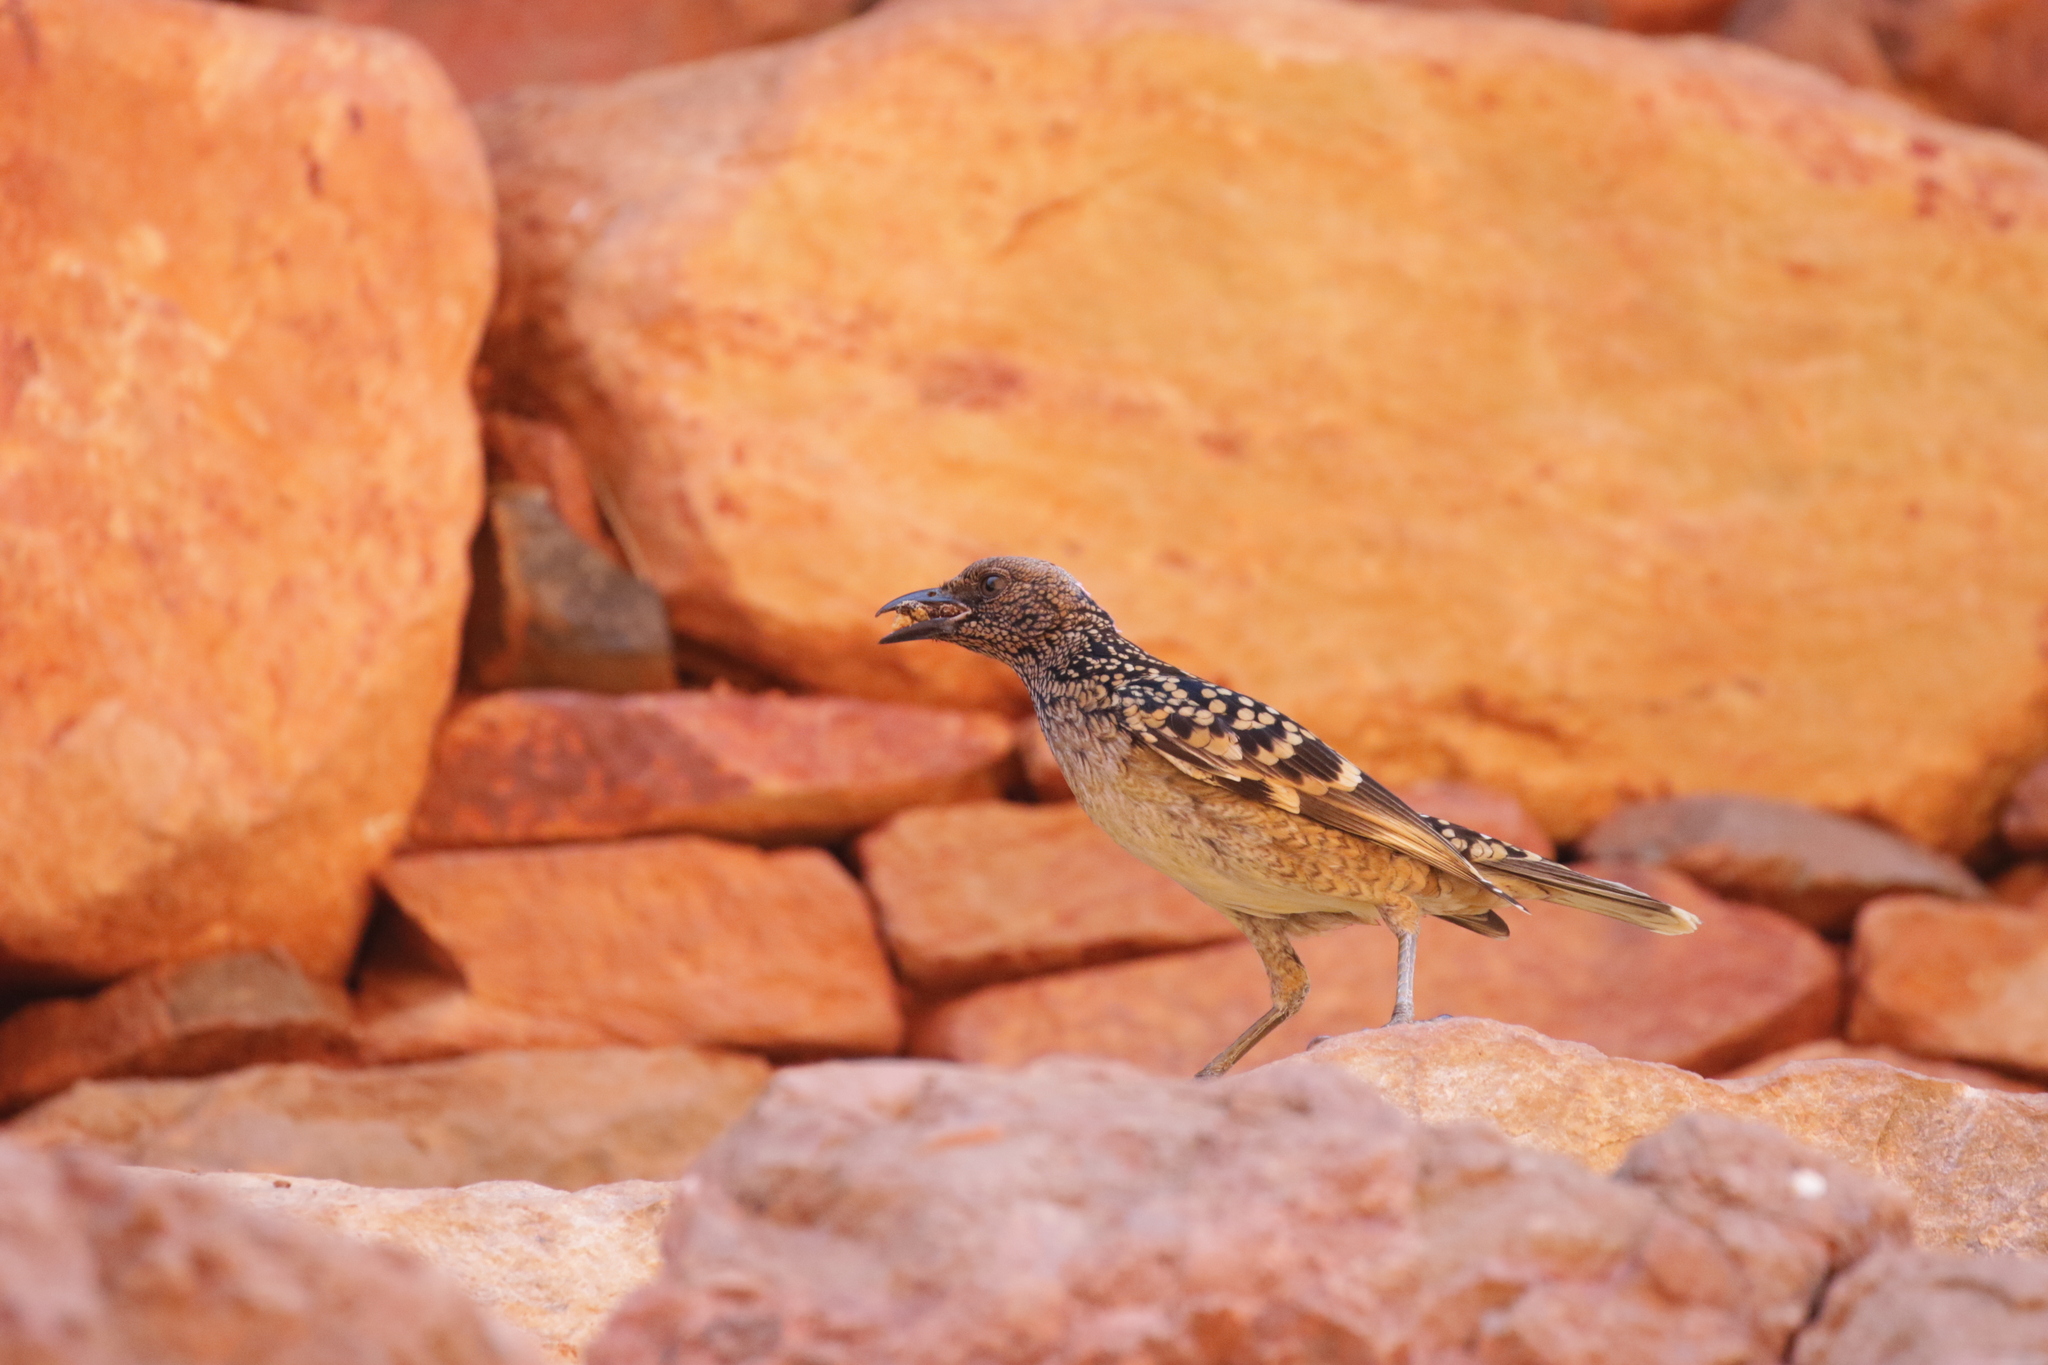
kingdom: Animalia
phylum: Chordata
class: Aves
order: Passeriformes
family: Ptilonorhynchidae
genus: Chlamydera
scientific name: Chlamydera guttata
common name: Western bowerbird
